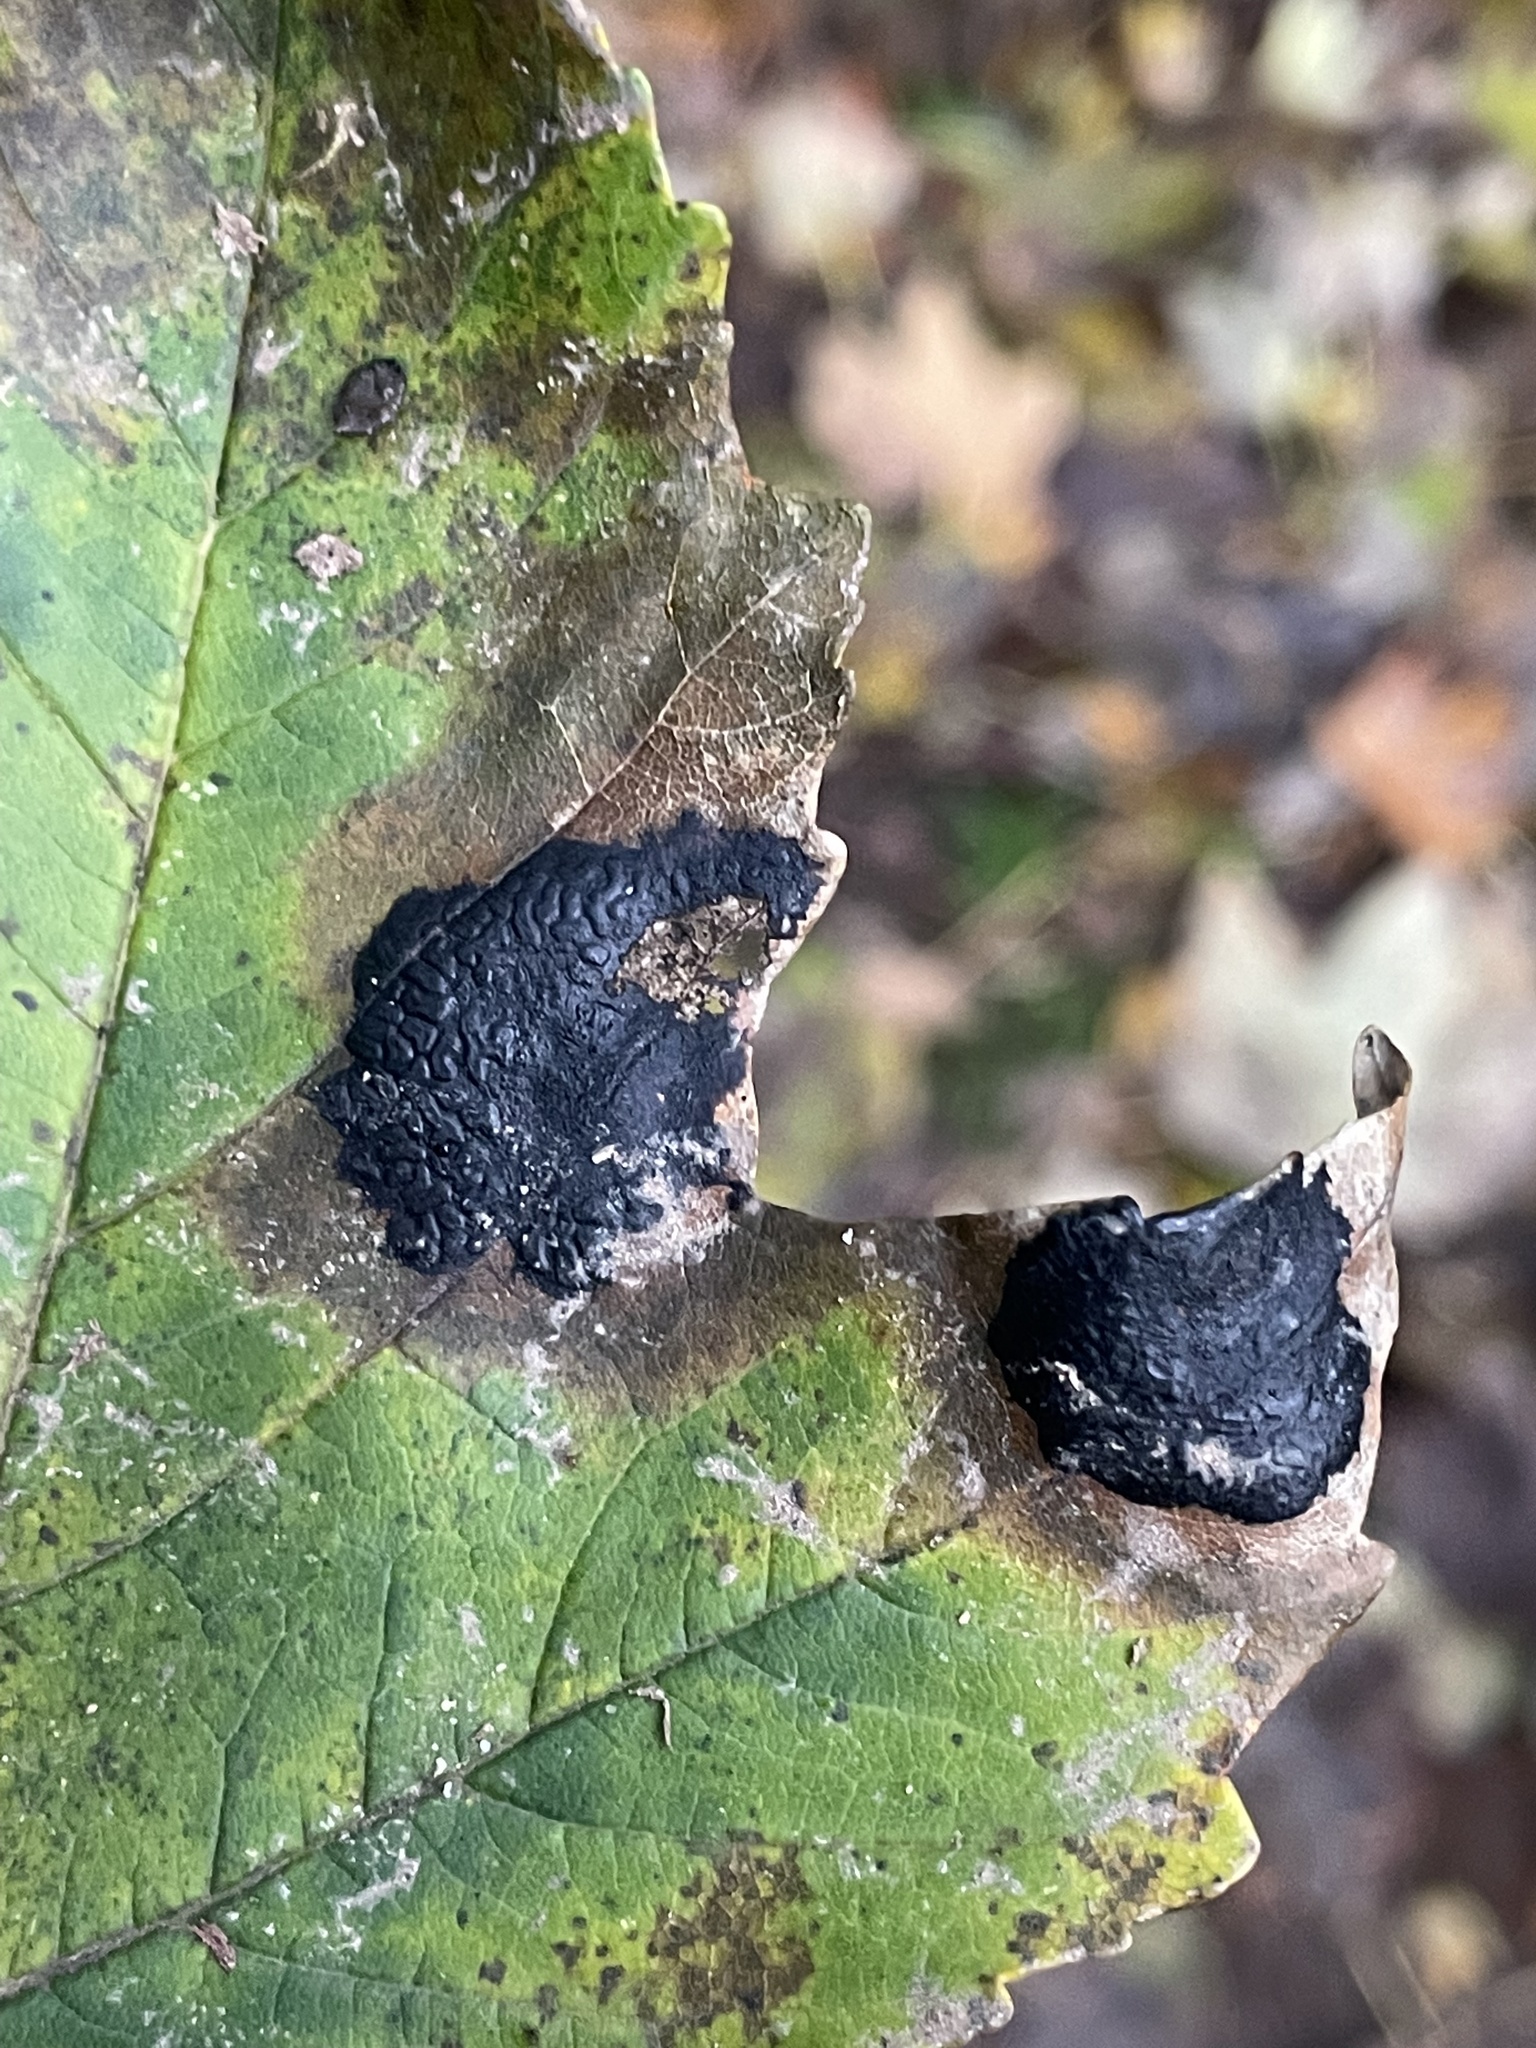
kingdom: Fungi
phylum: Ascomycota
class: Leotiomycetes
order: Rhytismatales
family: Rhytismataceae
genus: Rhytisma
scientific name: Rhytisma acerinum
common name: European tar spot
